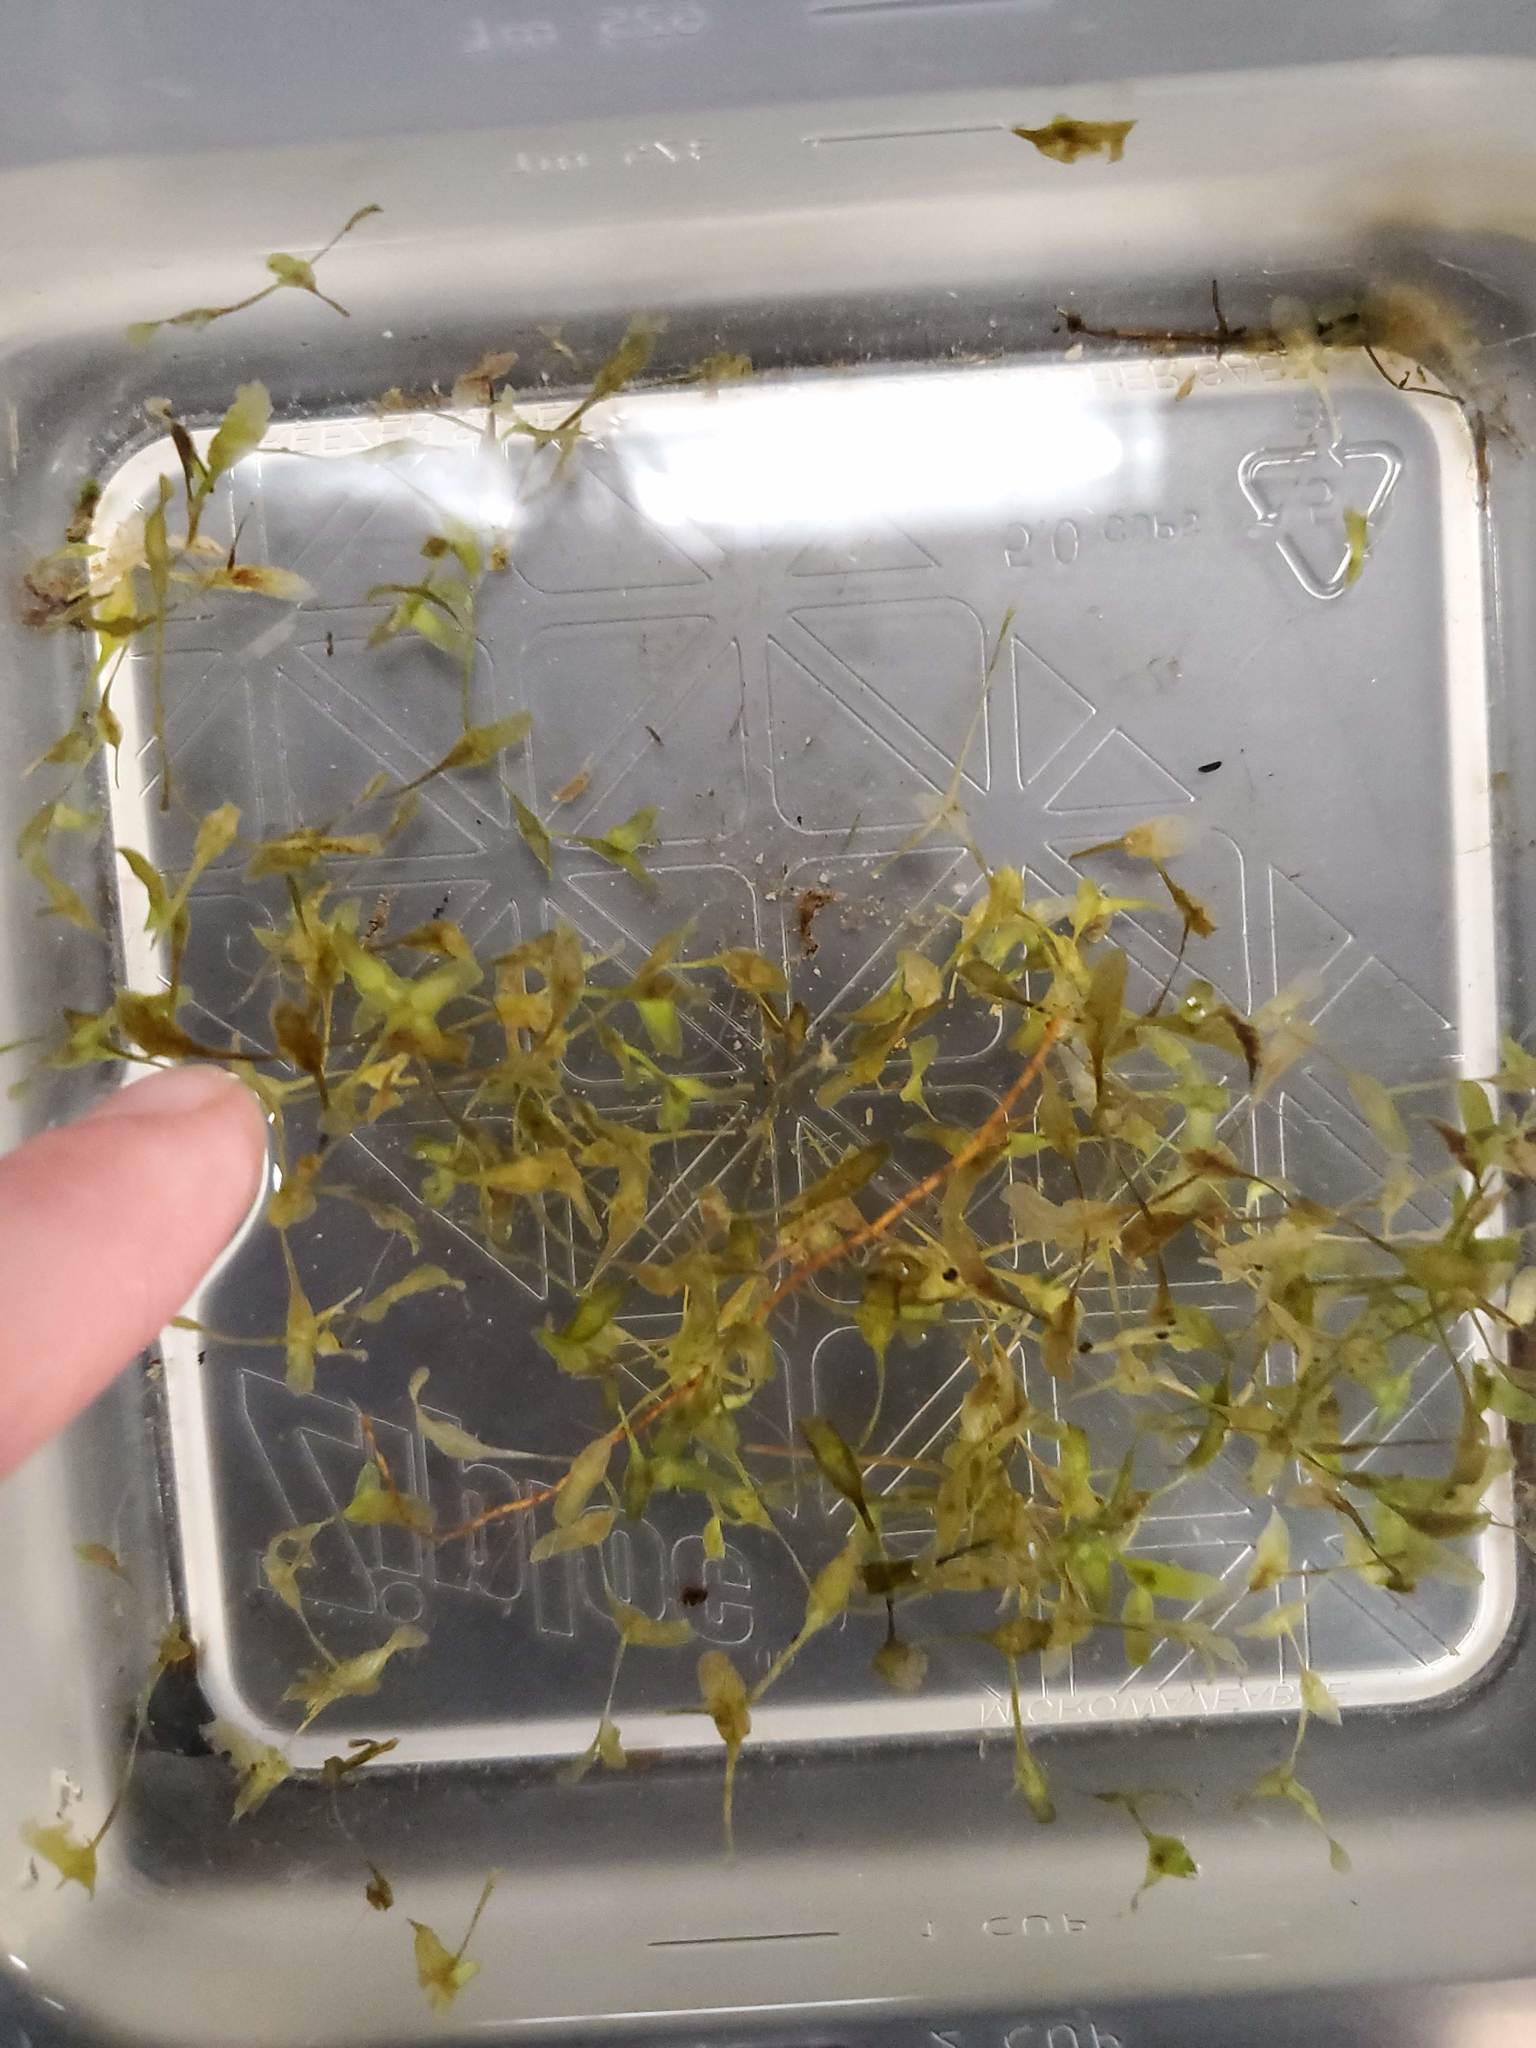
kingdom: Plantae
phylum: Tracheophyta
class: Liliopsida
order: Alismatales
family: Araceae
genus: Lemna
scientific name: Lemna trisulca
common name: Ivy-leaved duckweed
